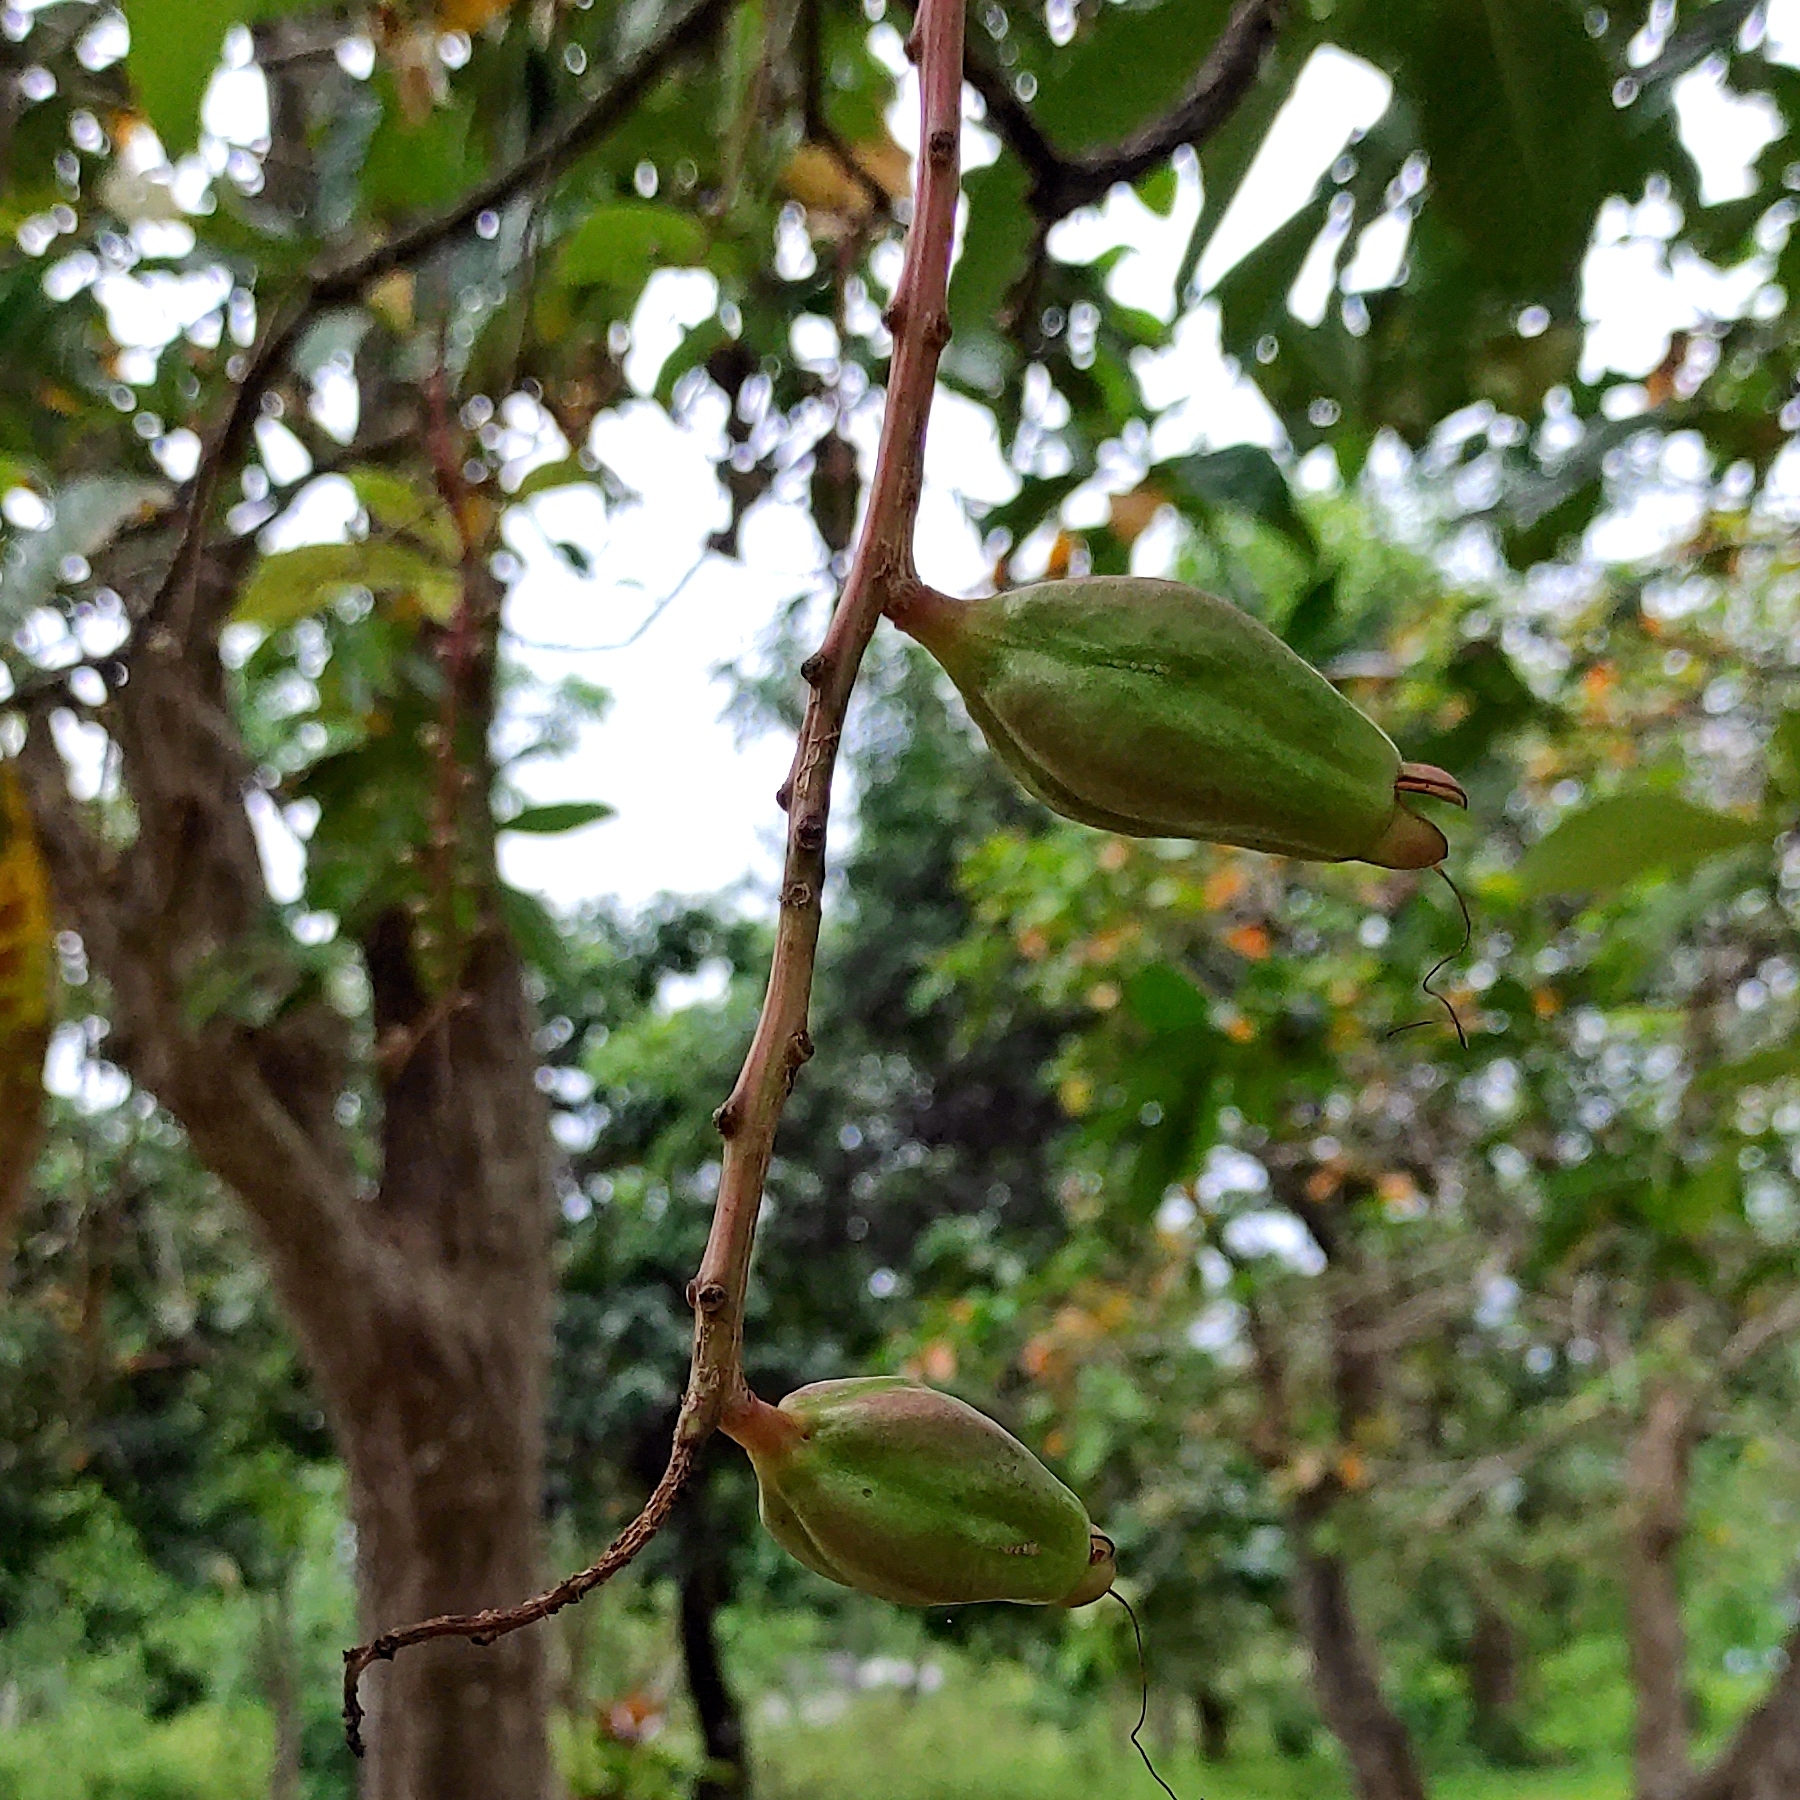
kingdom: Plantae
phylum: Tracheophyta
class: Magnoliopsida
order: Ericales
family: Lecythidaceae
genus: Barringtonia
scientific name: Barringtonia racemosa
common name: Brackwater mangrove
